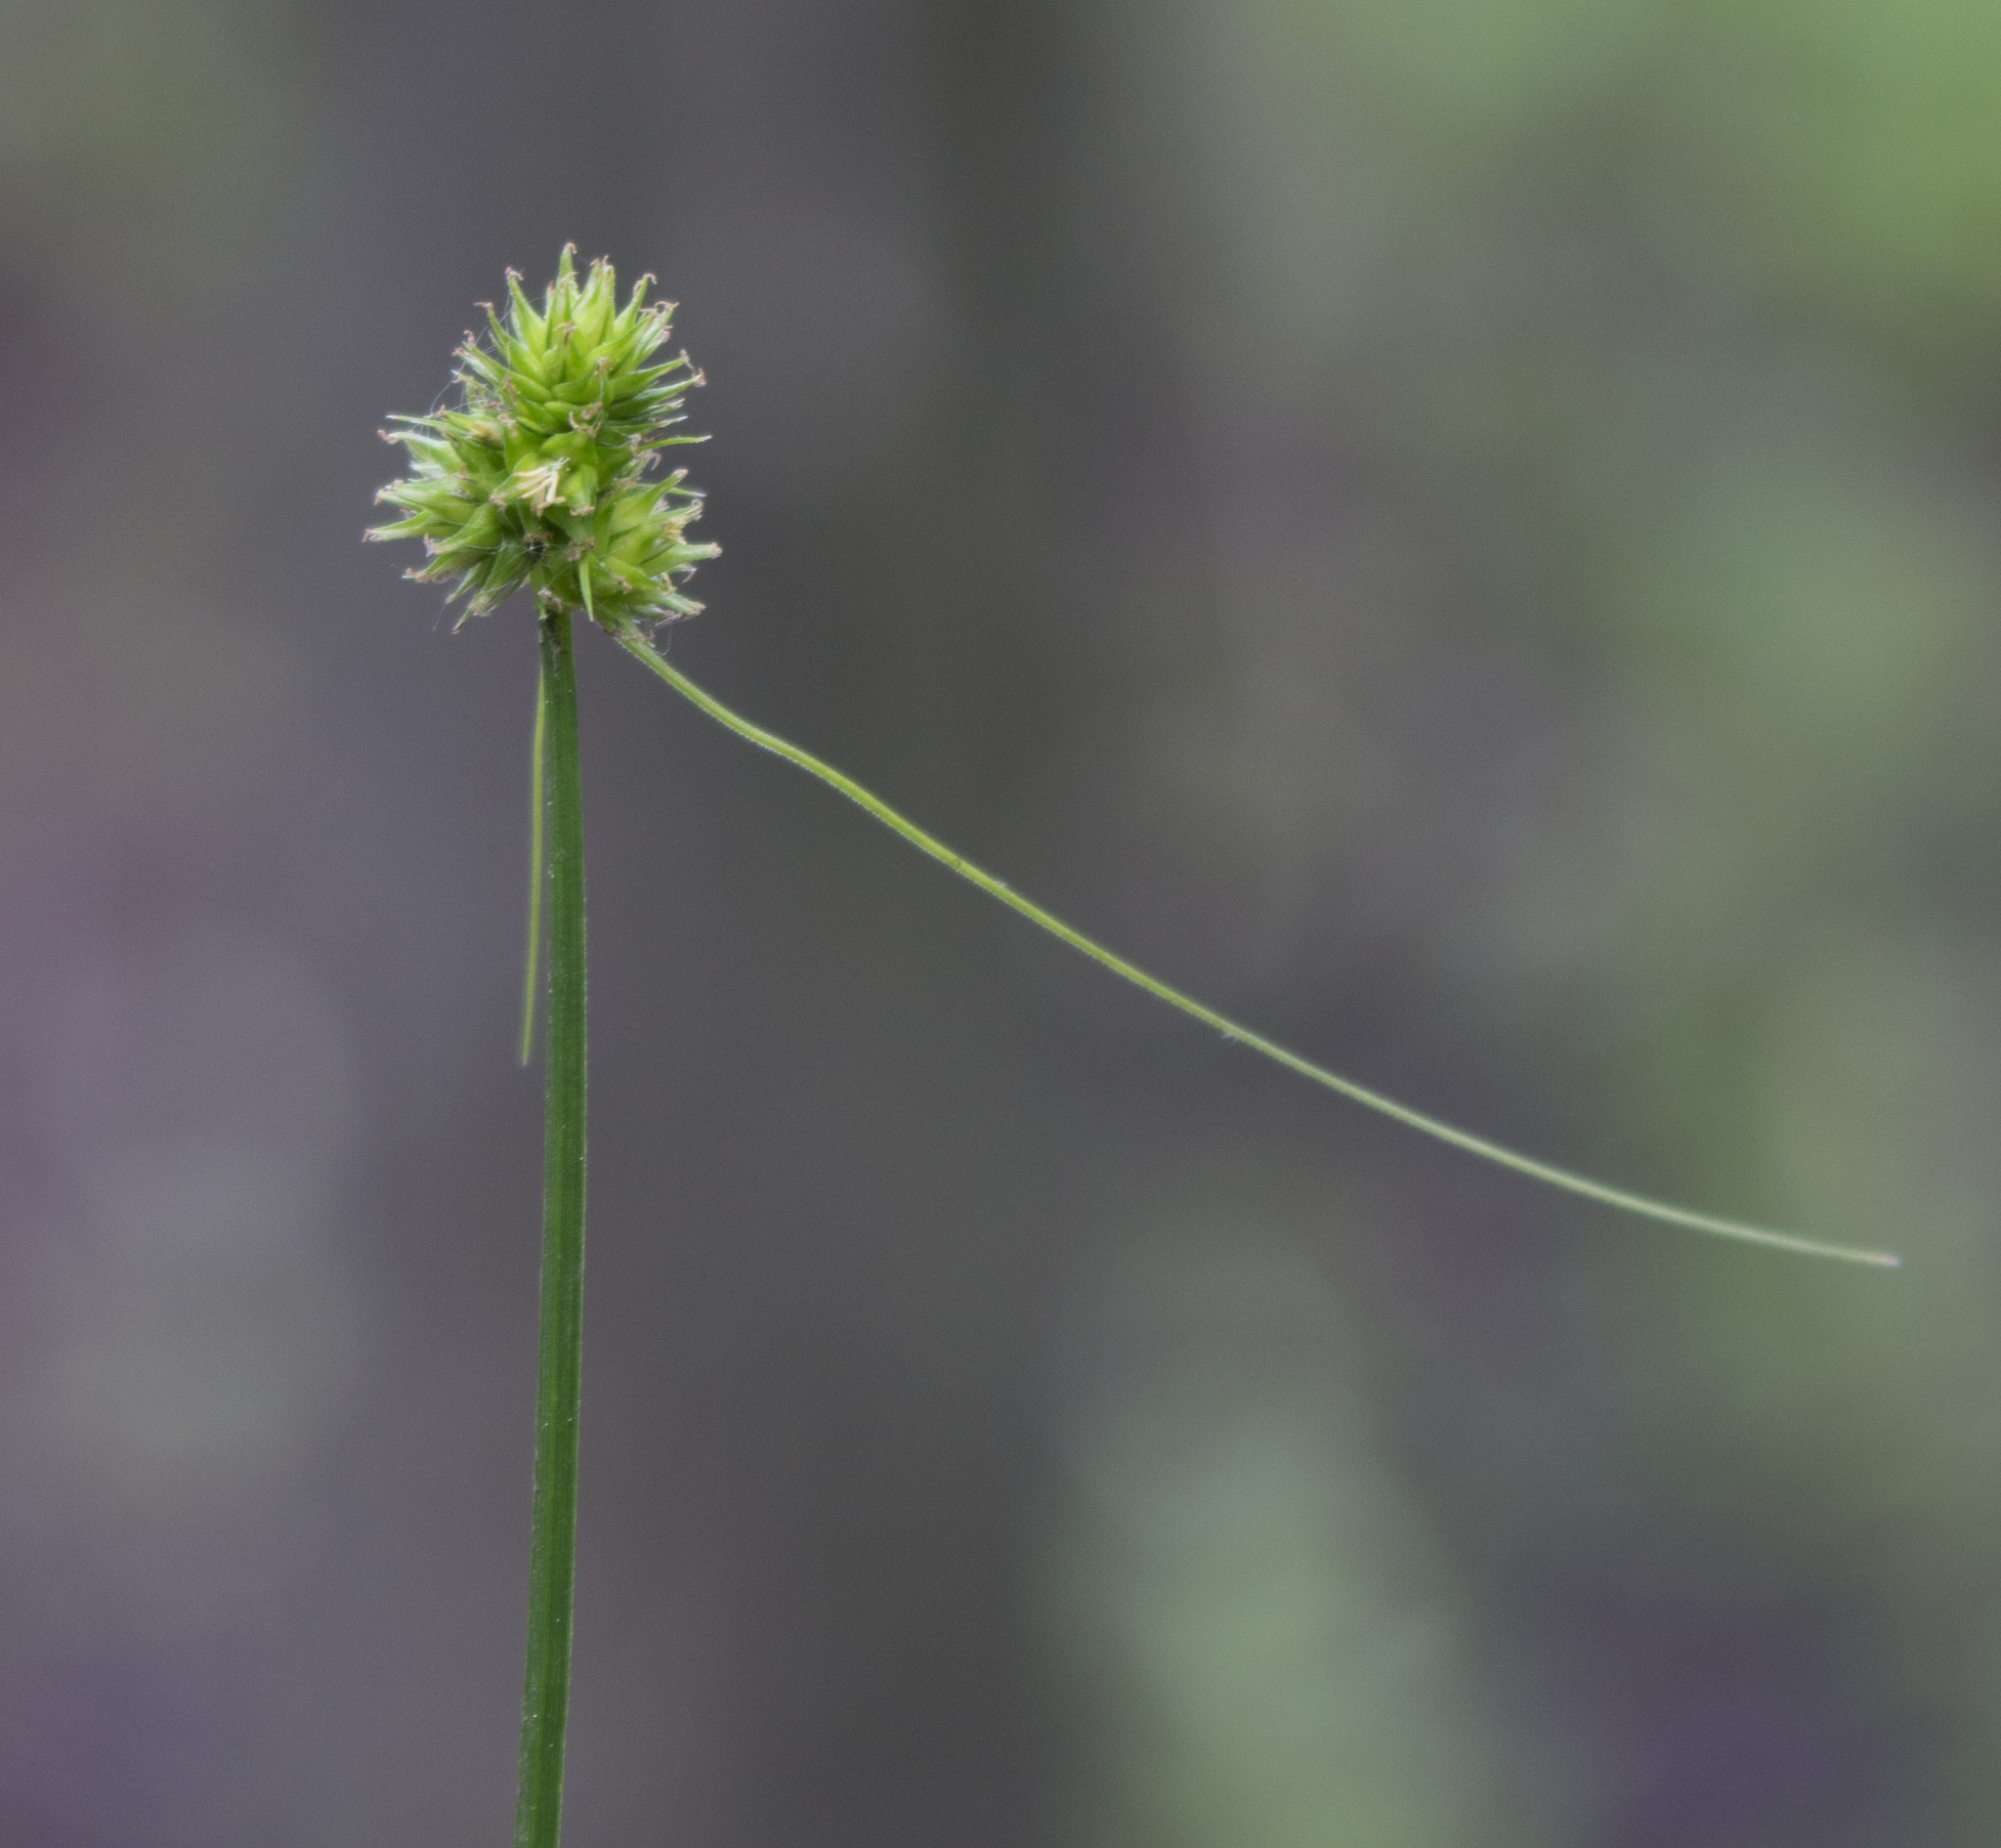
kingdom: Plantae
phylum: Tracheophyta
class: Liliopsida
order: Poales
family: Cyperaceae
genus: Carex
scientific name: Carex cephalophora
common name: Oval-headed sedge
